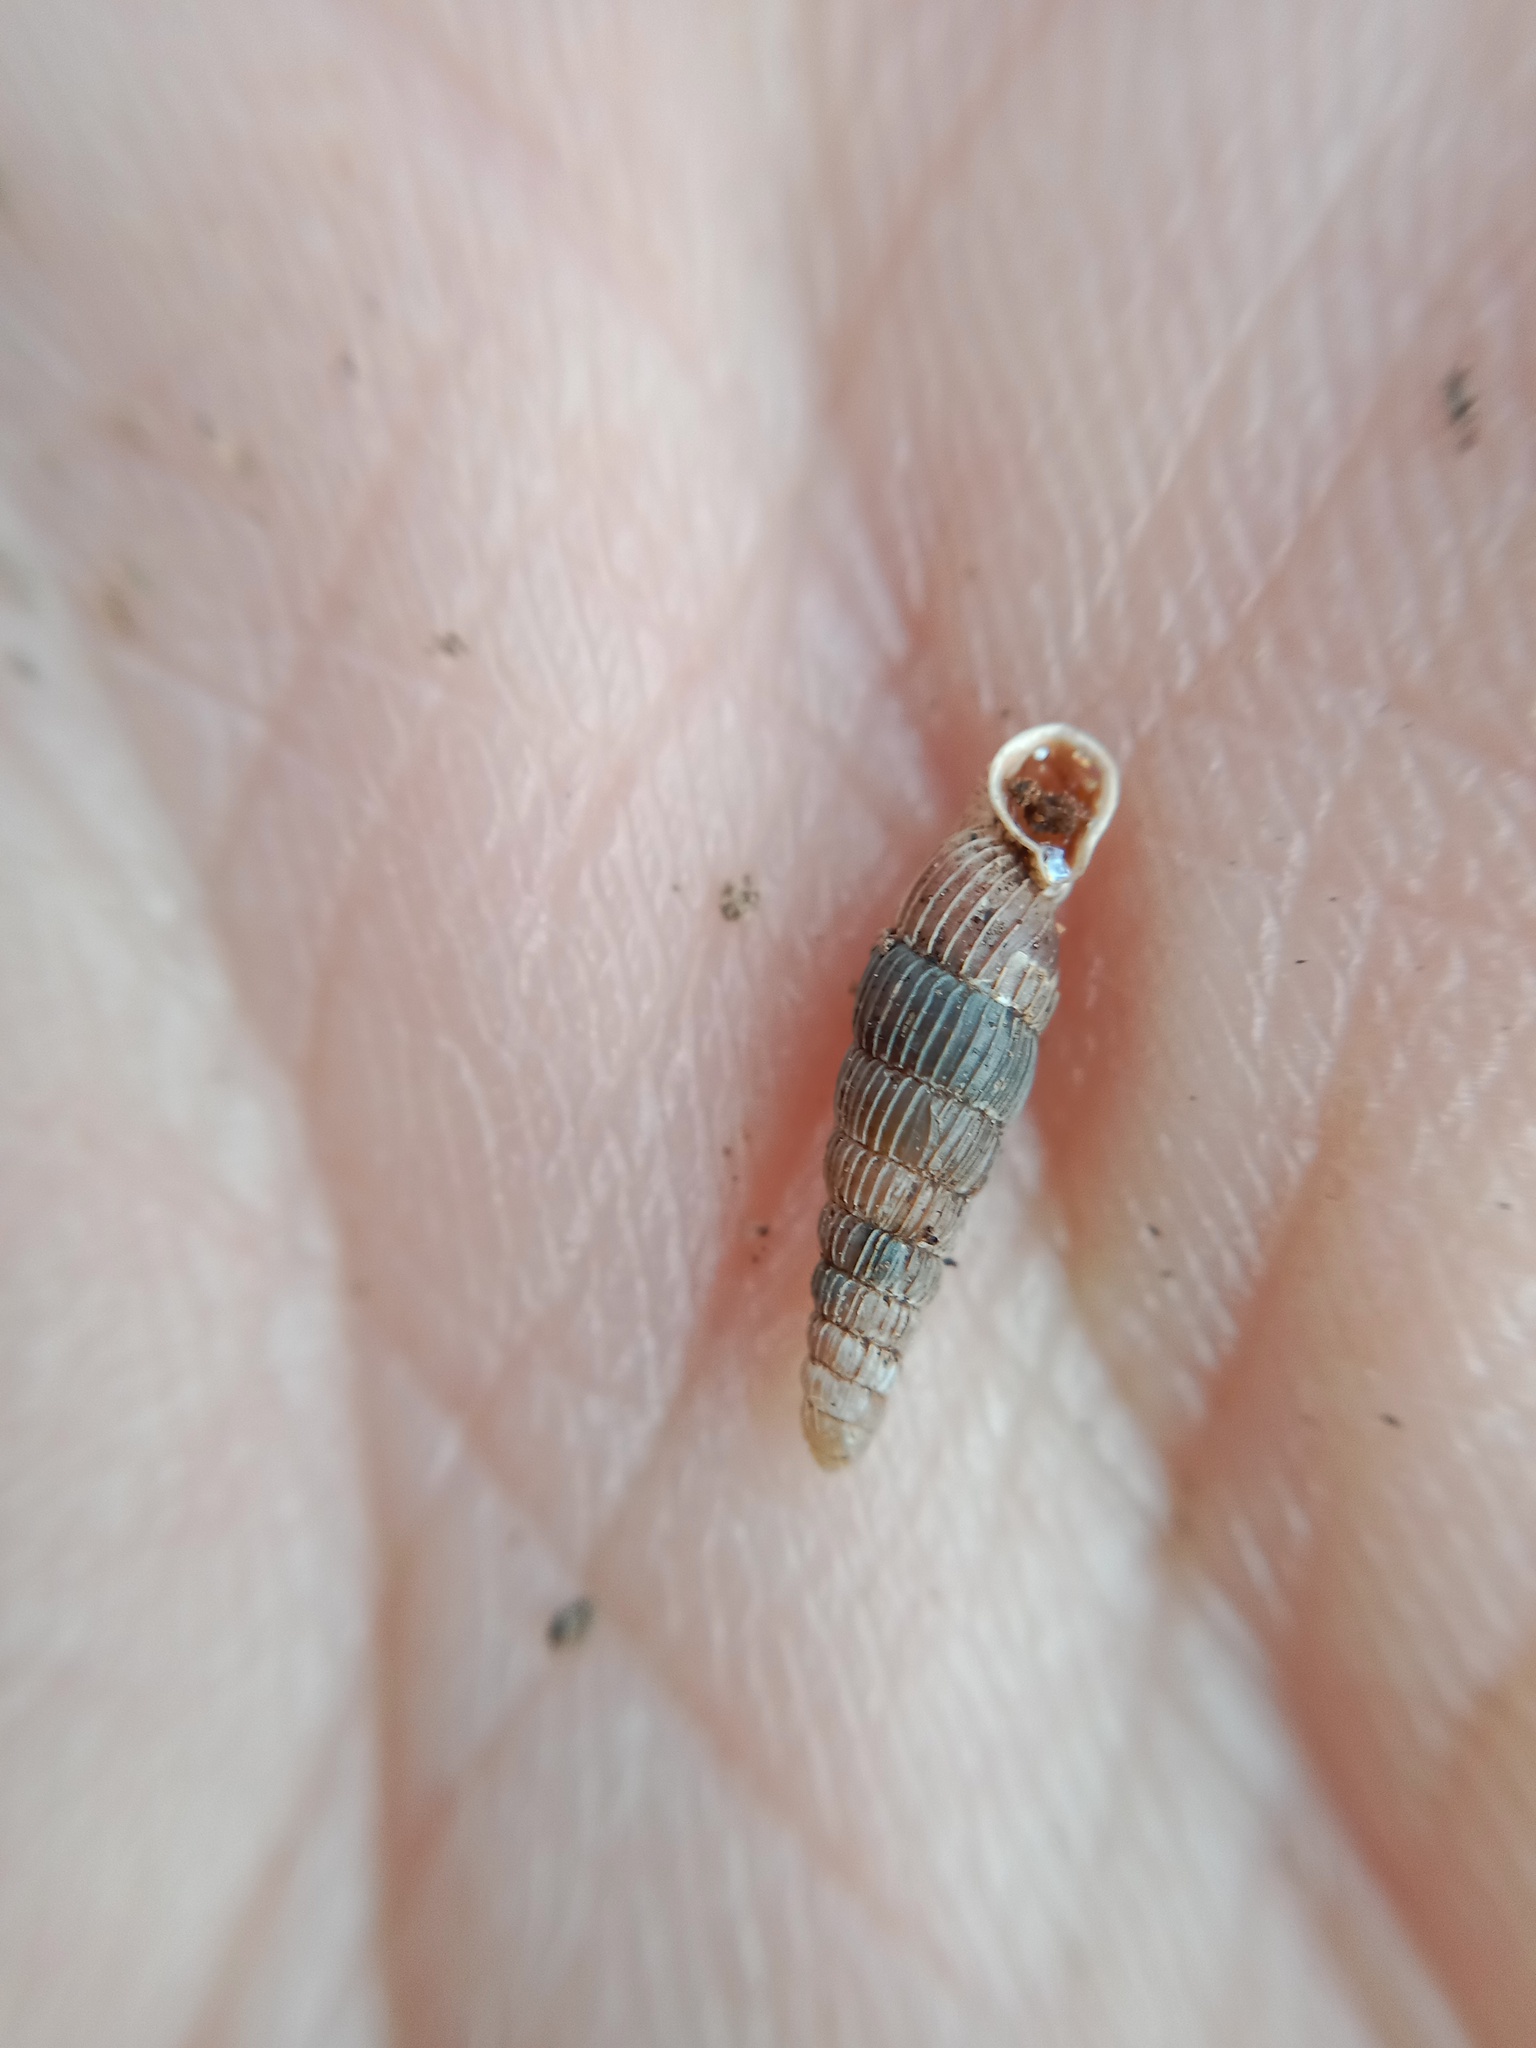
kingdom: Animalia
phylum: Mollusca
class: Gastropoda
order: Stylommatophora
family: Clausiliidae
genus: Ruthenica
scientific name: Ruthenica filograna
